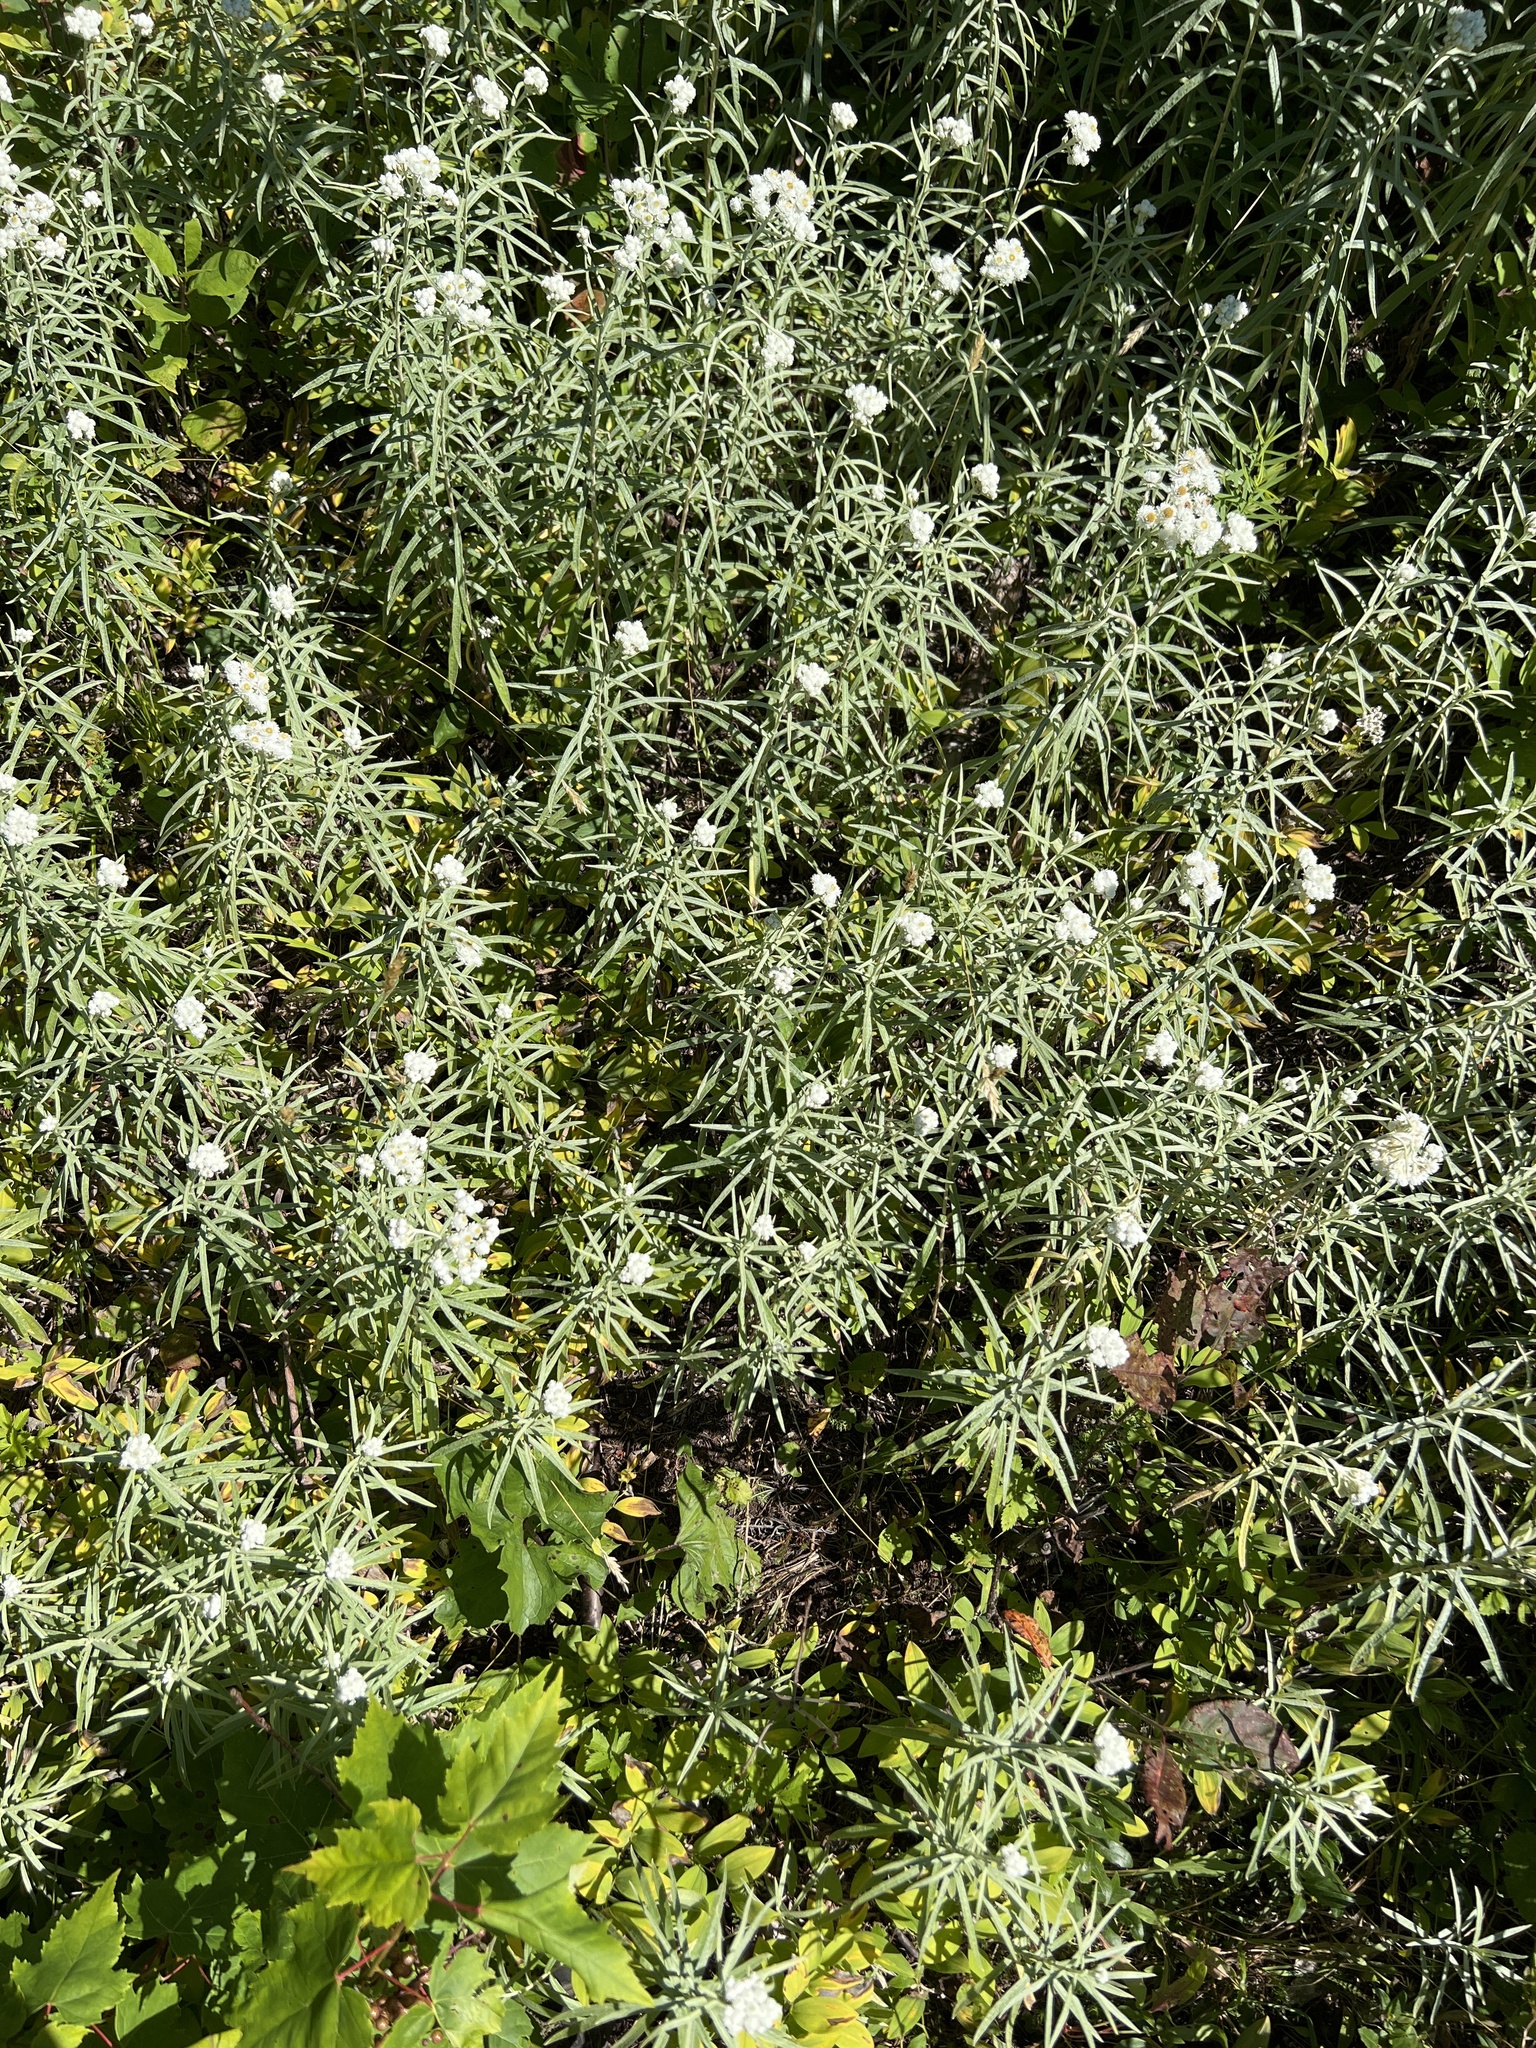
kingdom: Plantae
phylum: Tracheophyta
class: Magnoliopsida
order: Asterales
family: Asteraceae
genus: Anaphalis
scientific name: Anaphalis margaritacea
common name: Pearly everlasting
